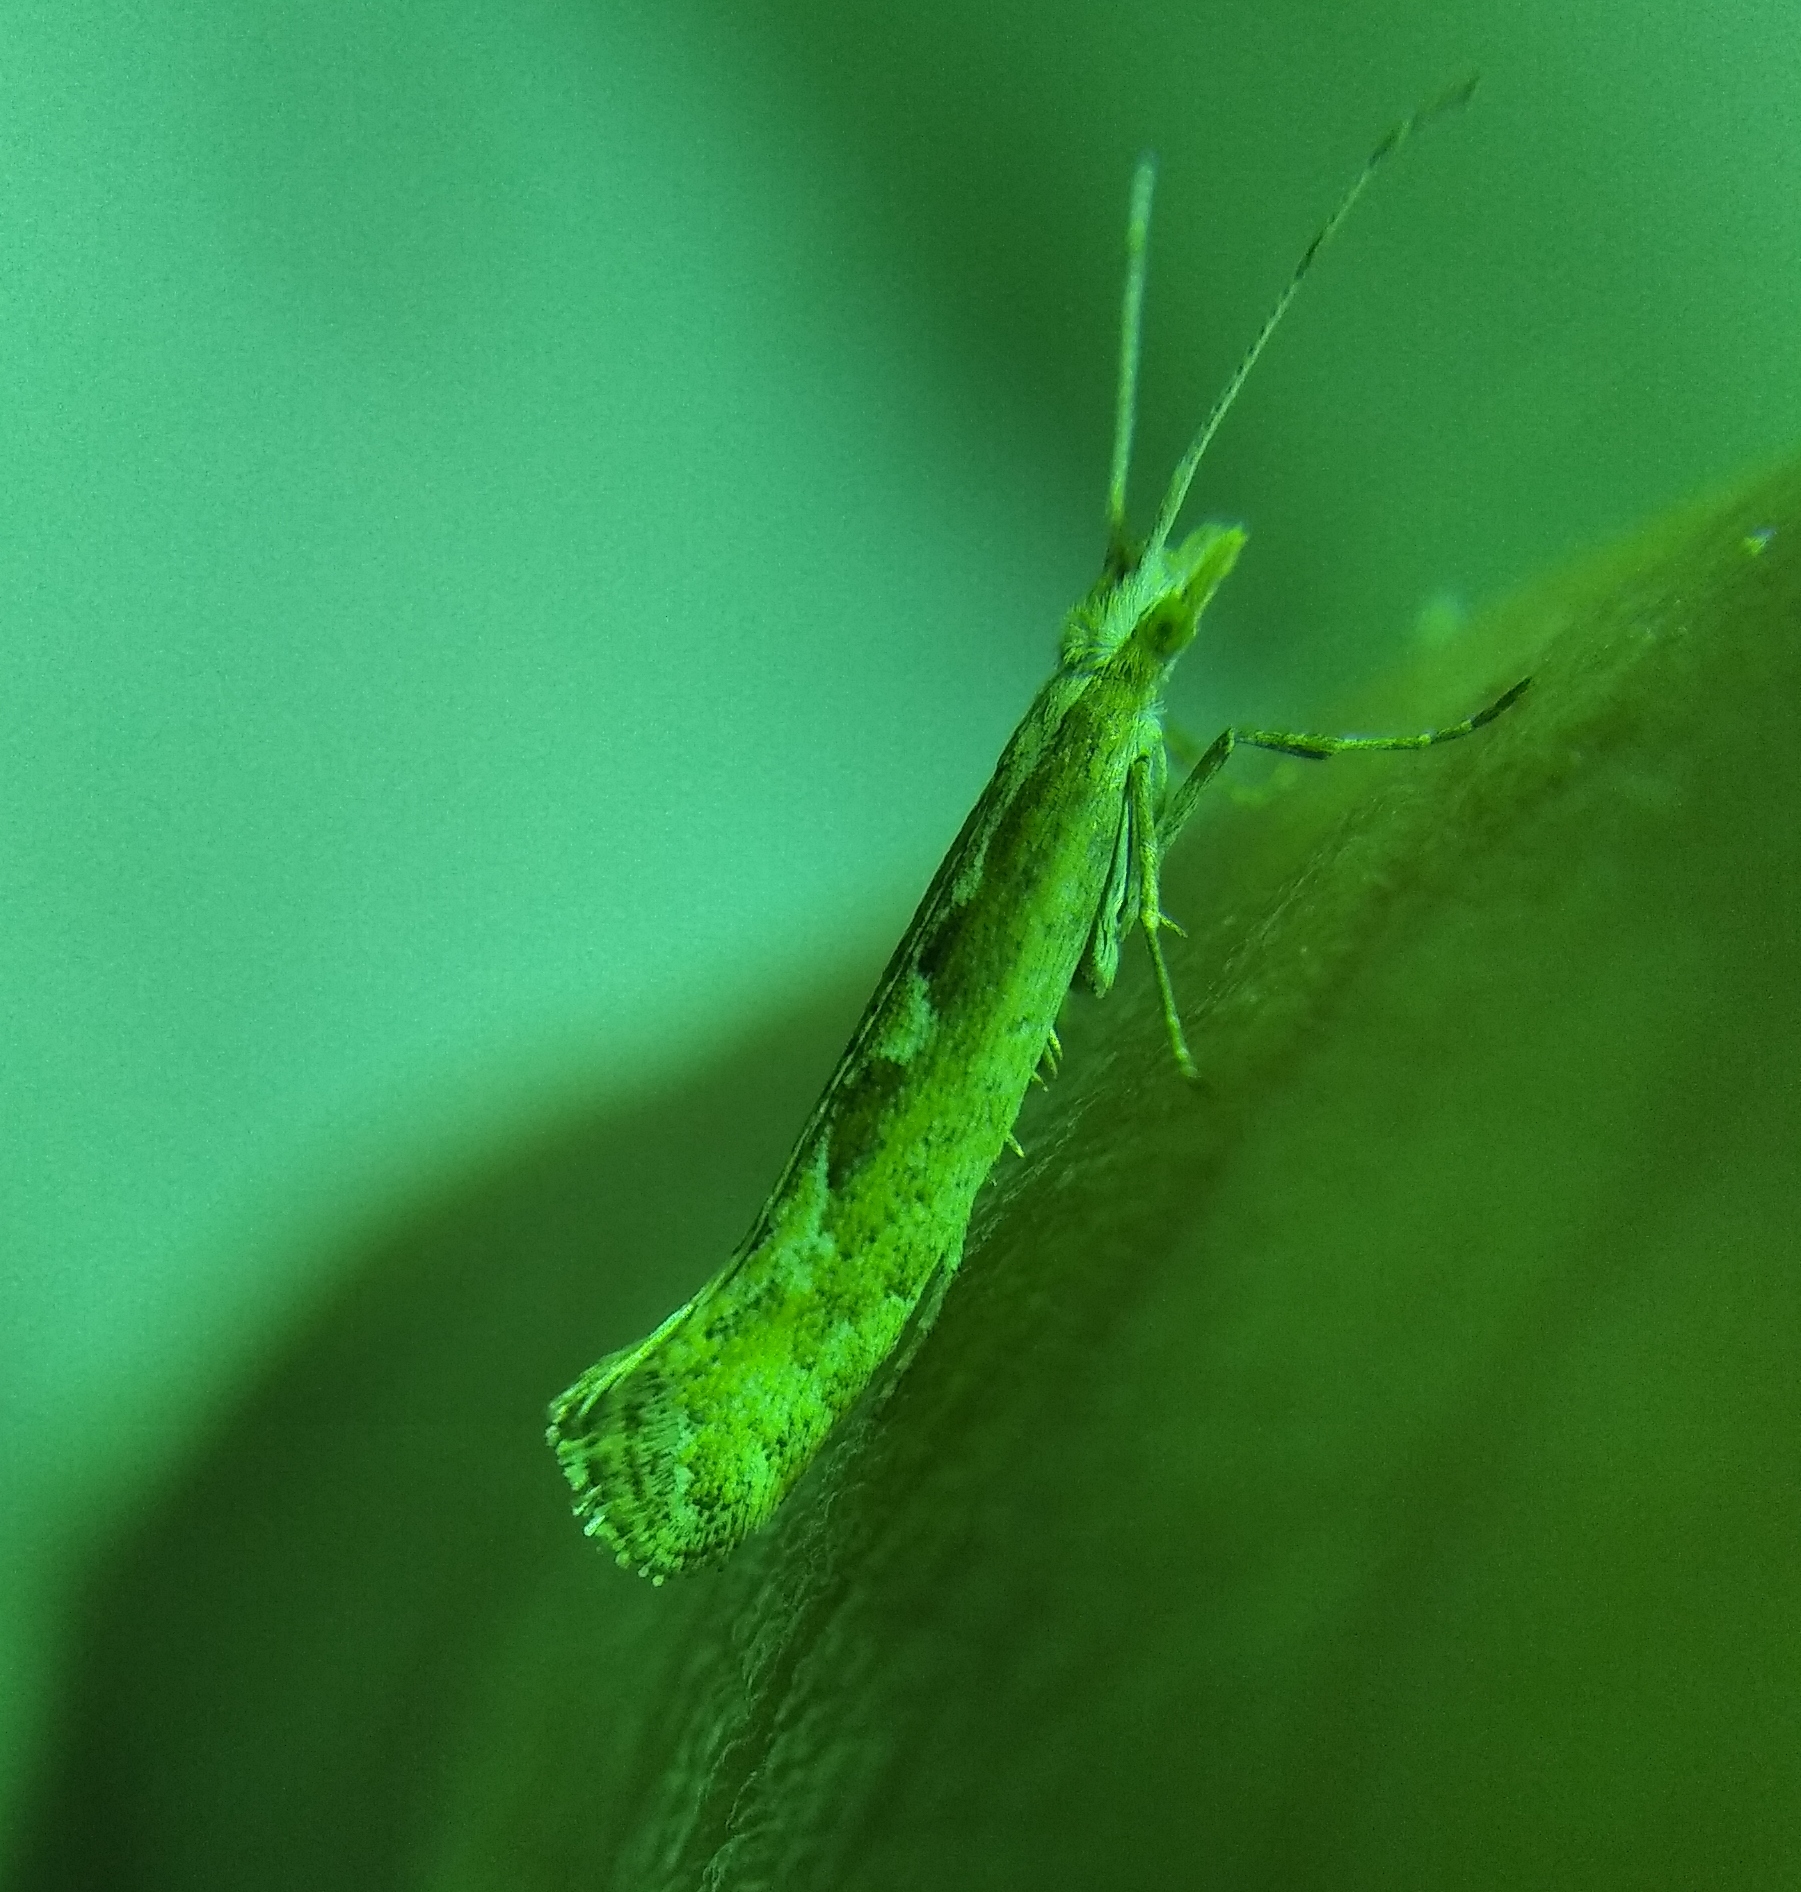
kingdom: Animalia
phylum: Arthropoda
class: Insecta
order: Lepidoptera
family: Plutellidae
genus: Plutella
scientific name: Plutella xylostella
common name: Diamond-back moth
